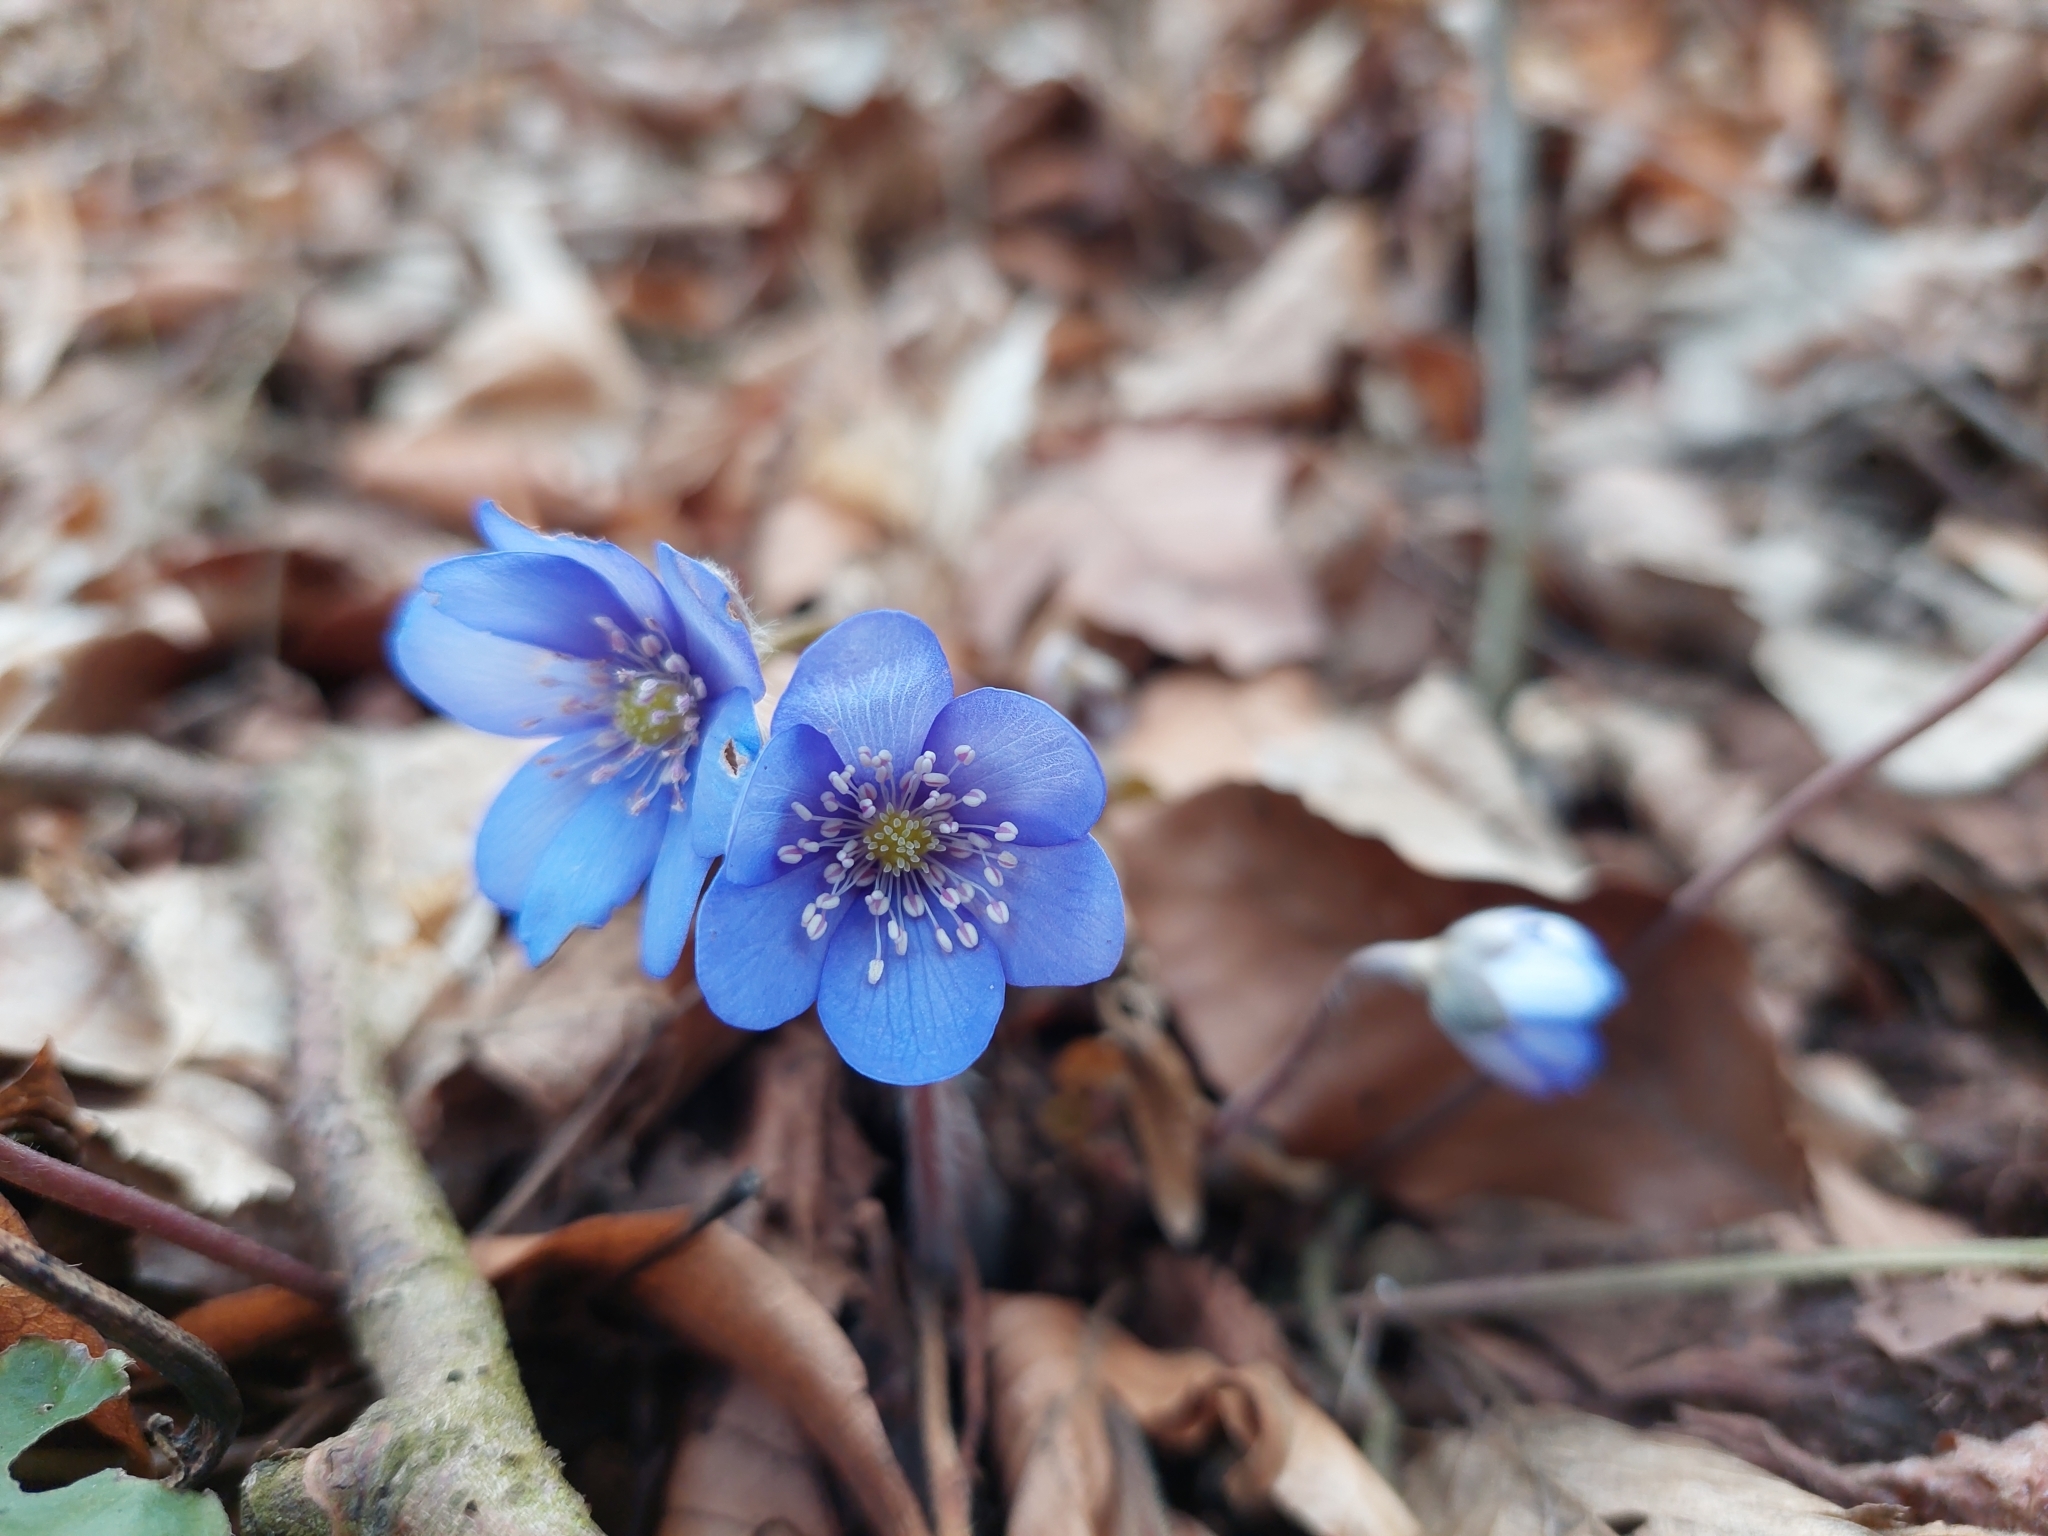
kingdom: Plantae
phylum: Tracheophyta
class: Magnoliopsida
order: Ranunculales
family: Ranunculaceae
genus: Hepatica
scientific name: Hepatica nobilis
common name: Liverleaf
